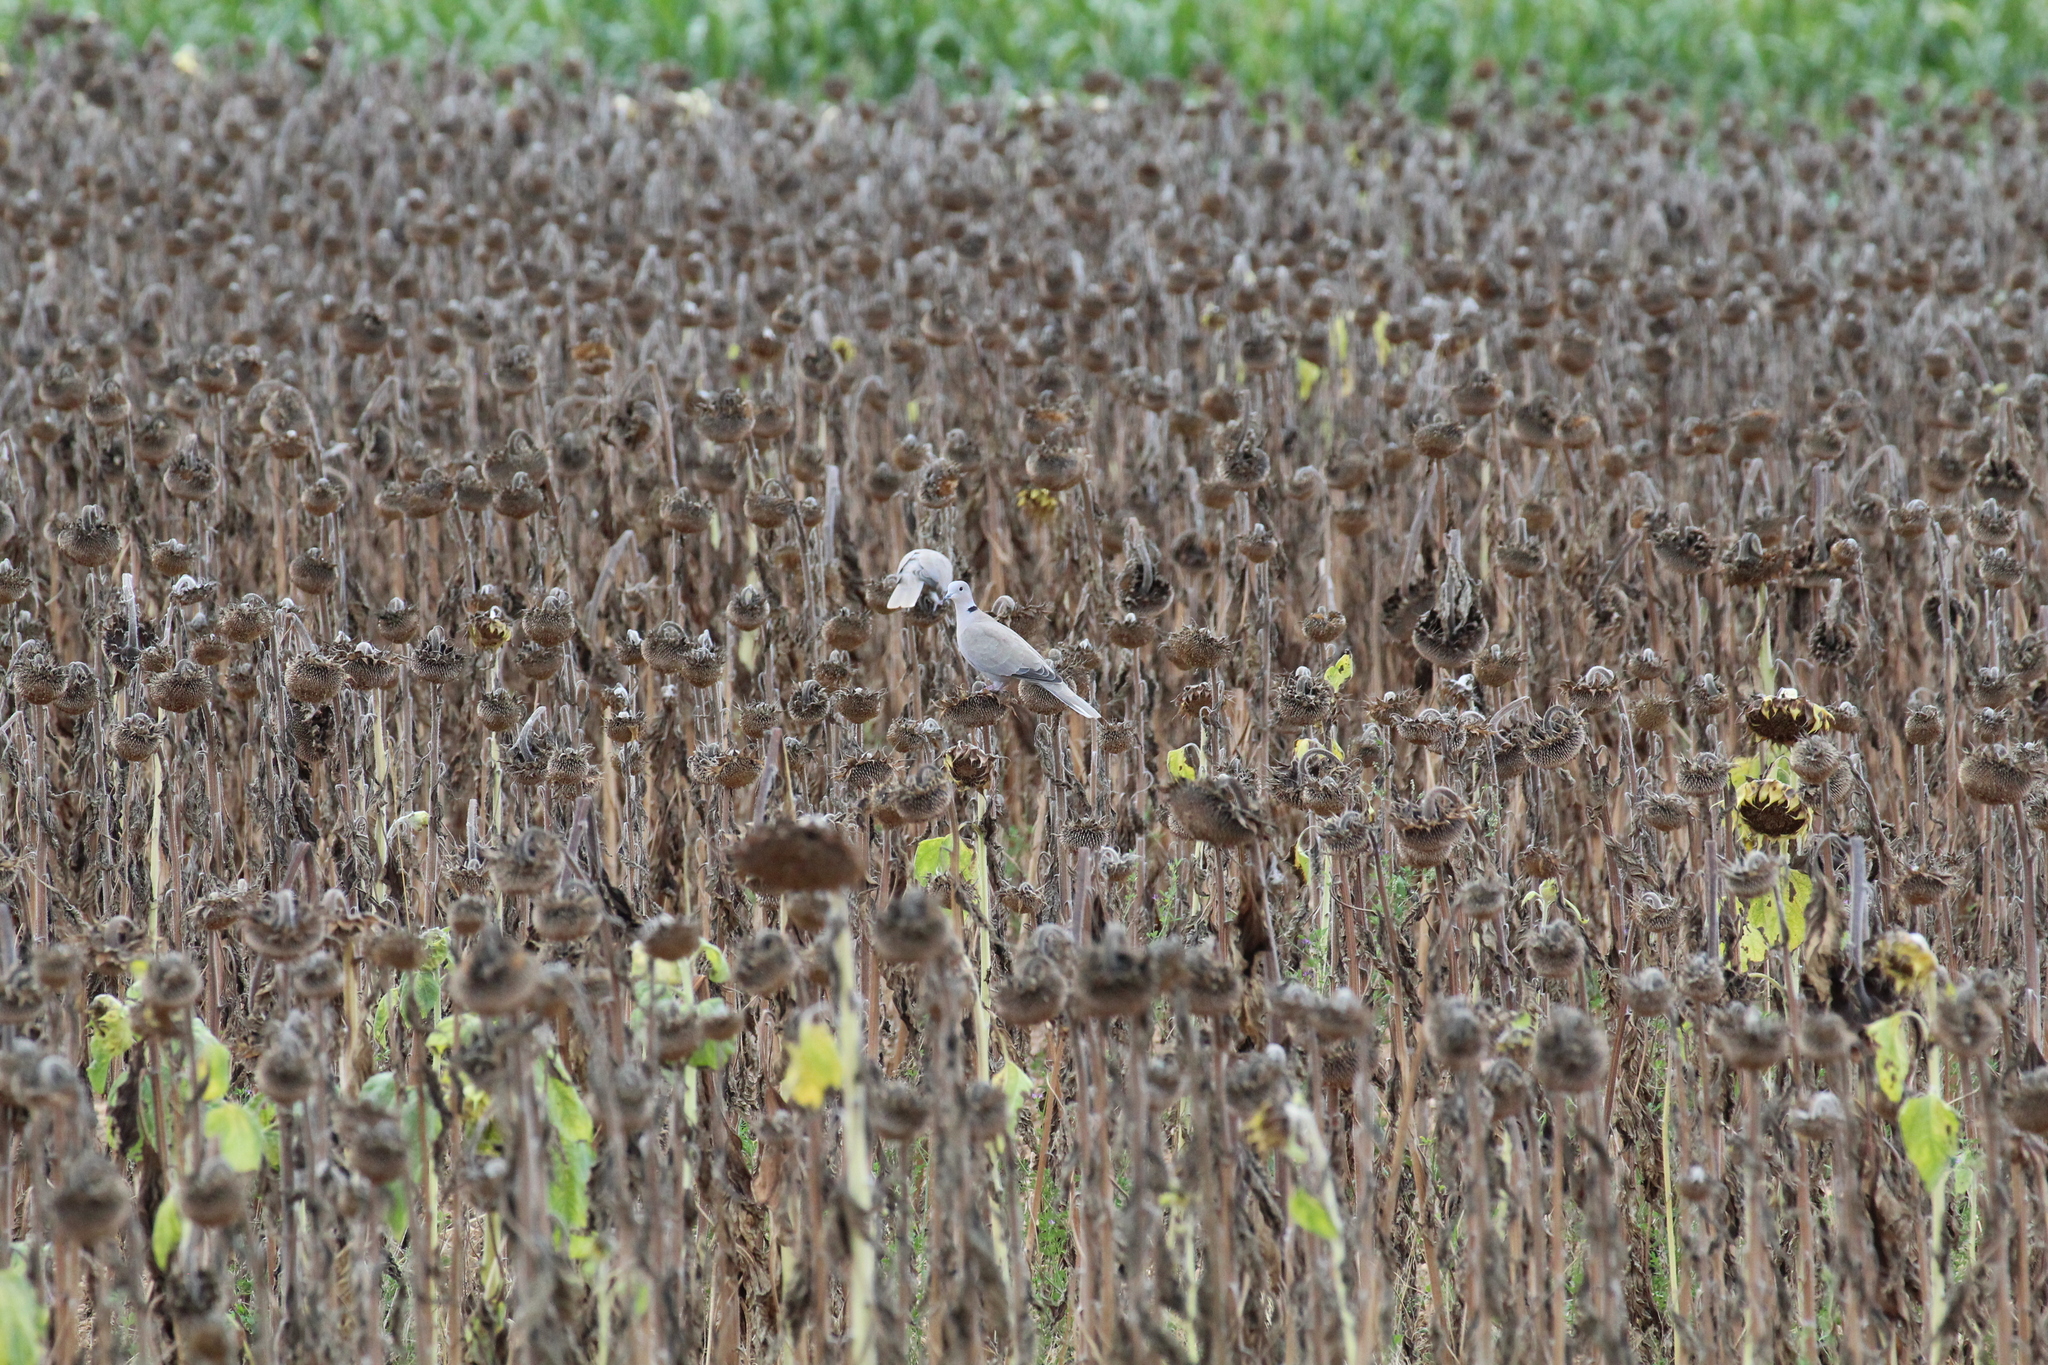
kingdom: Animalia
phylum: Chordata
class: Aves
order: Columbiformes
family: Columbidae
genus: Streptopelia
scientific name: Streptopelia decaocto
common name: Eurasian collared dove
